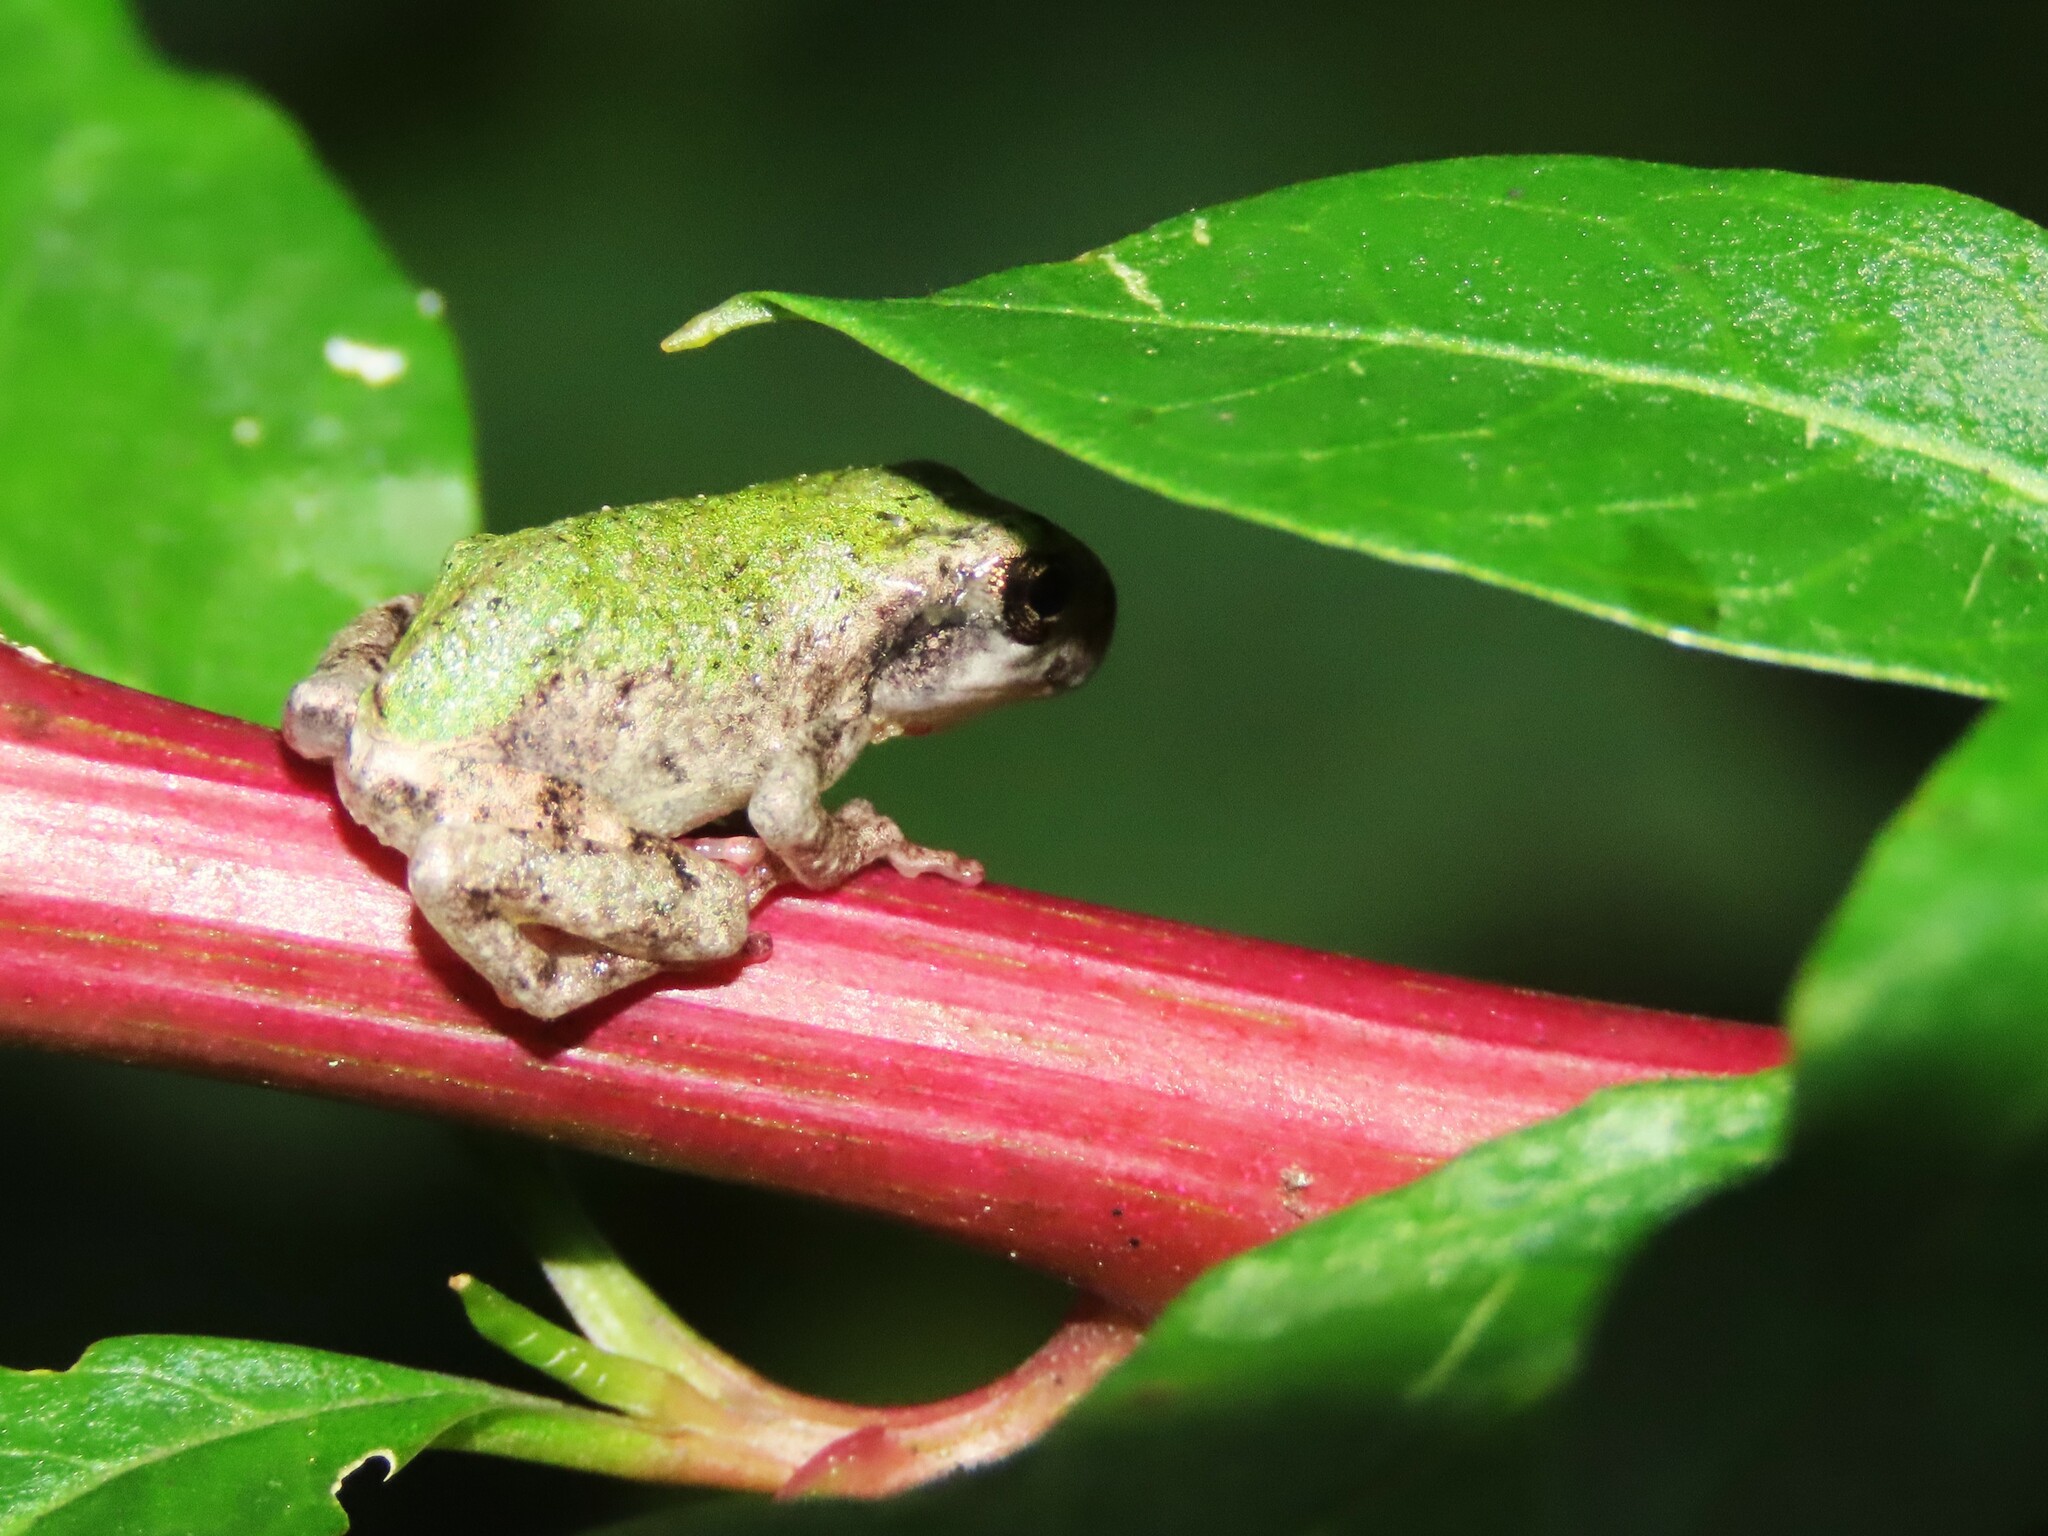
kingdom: Animalia
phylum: Chordata
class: Amphibia
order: Anura
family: Hylidae
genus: Dryophytes
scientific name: Dryophytes versicolor
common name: Gray treefrog
